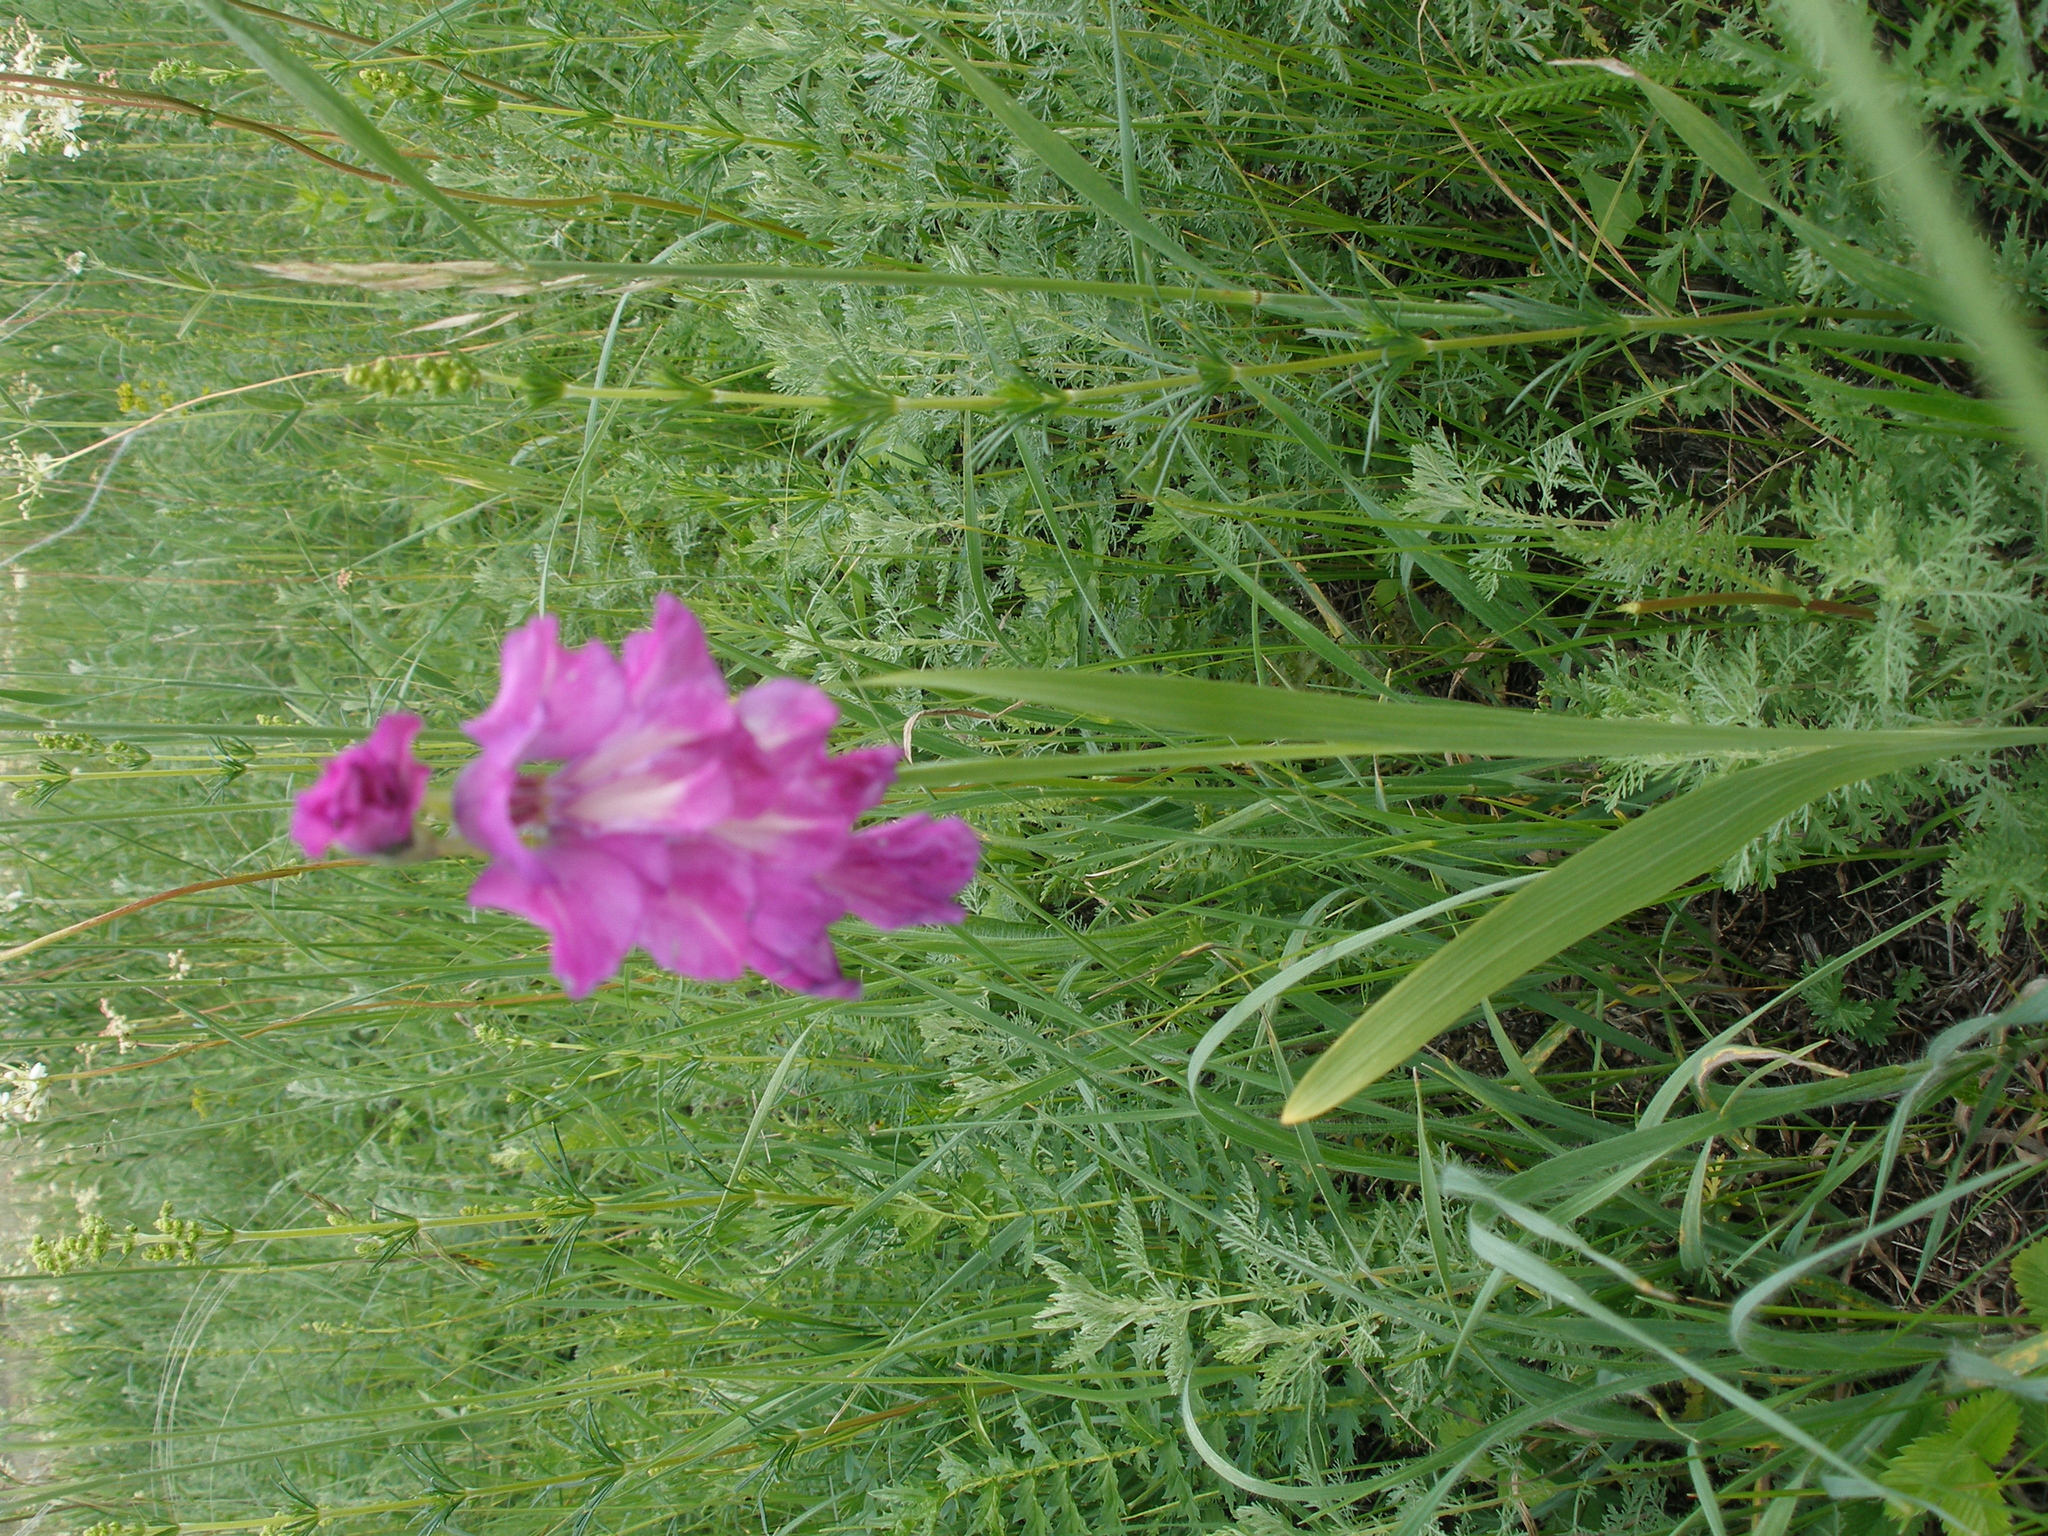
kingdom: Plantae
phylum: Tracheophyta
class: Liliopsida
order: Asparagales
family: Iridaceae
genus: Gladiolus
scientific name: Gladiolus tenuis
